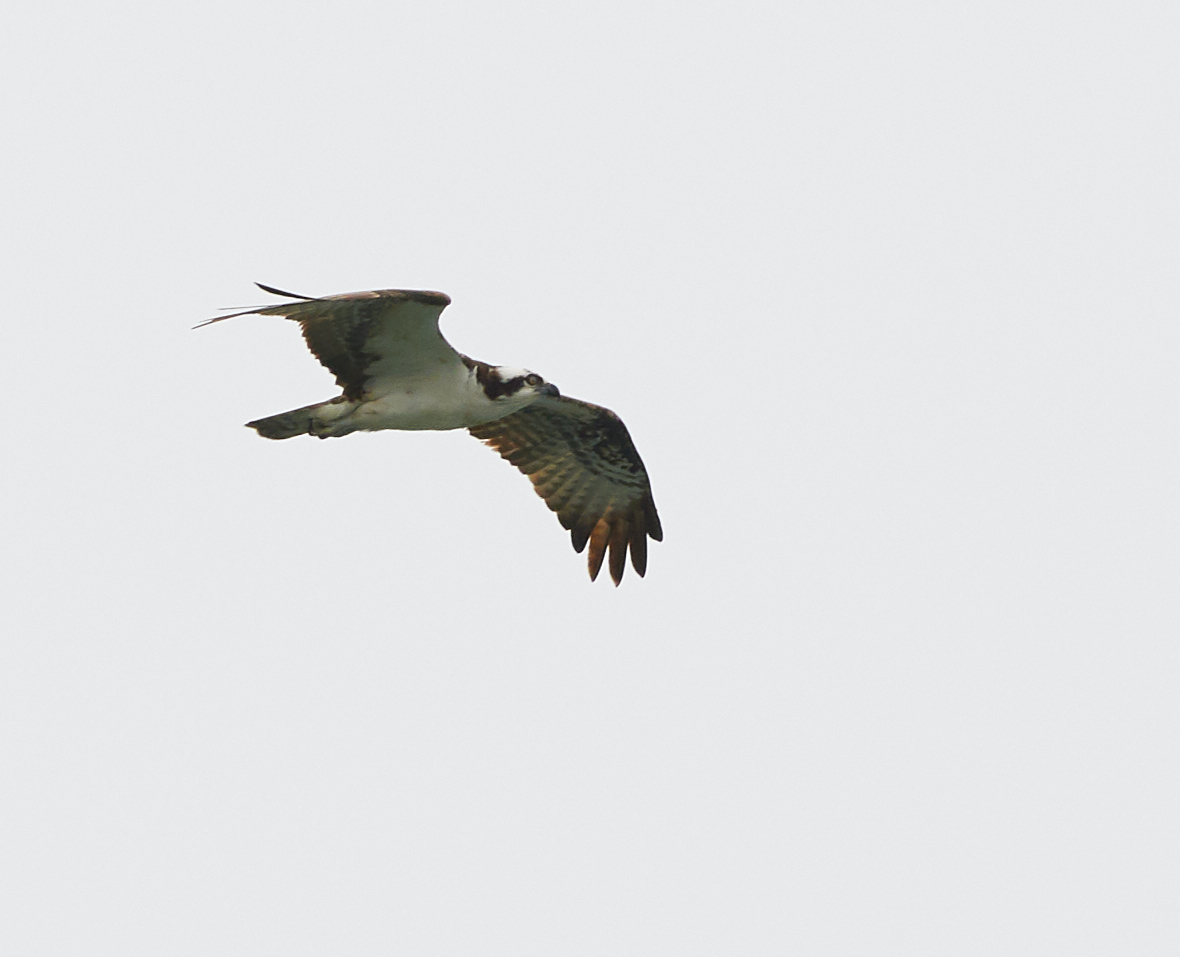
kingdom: Animalia
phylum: Chordata
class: Aves
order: Accipitriformes
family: Pandionidae
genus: Pandion
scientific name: Pandion haliaetus
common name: Osprey
